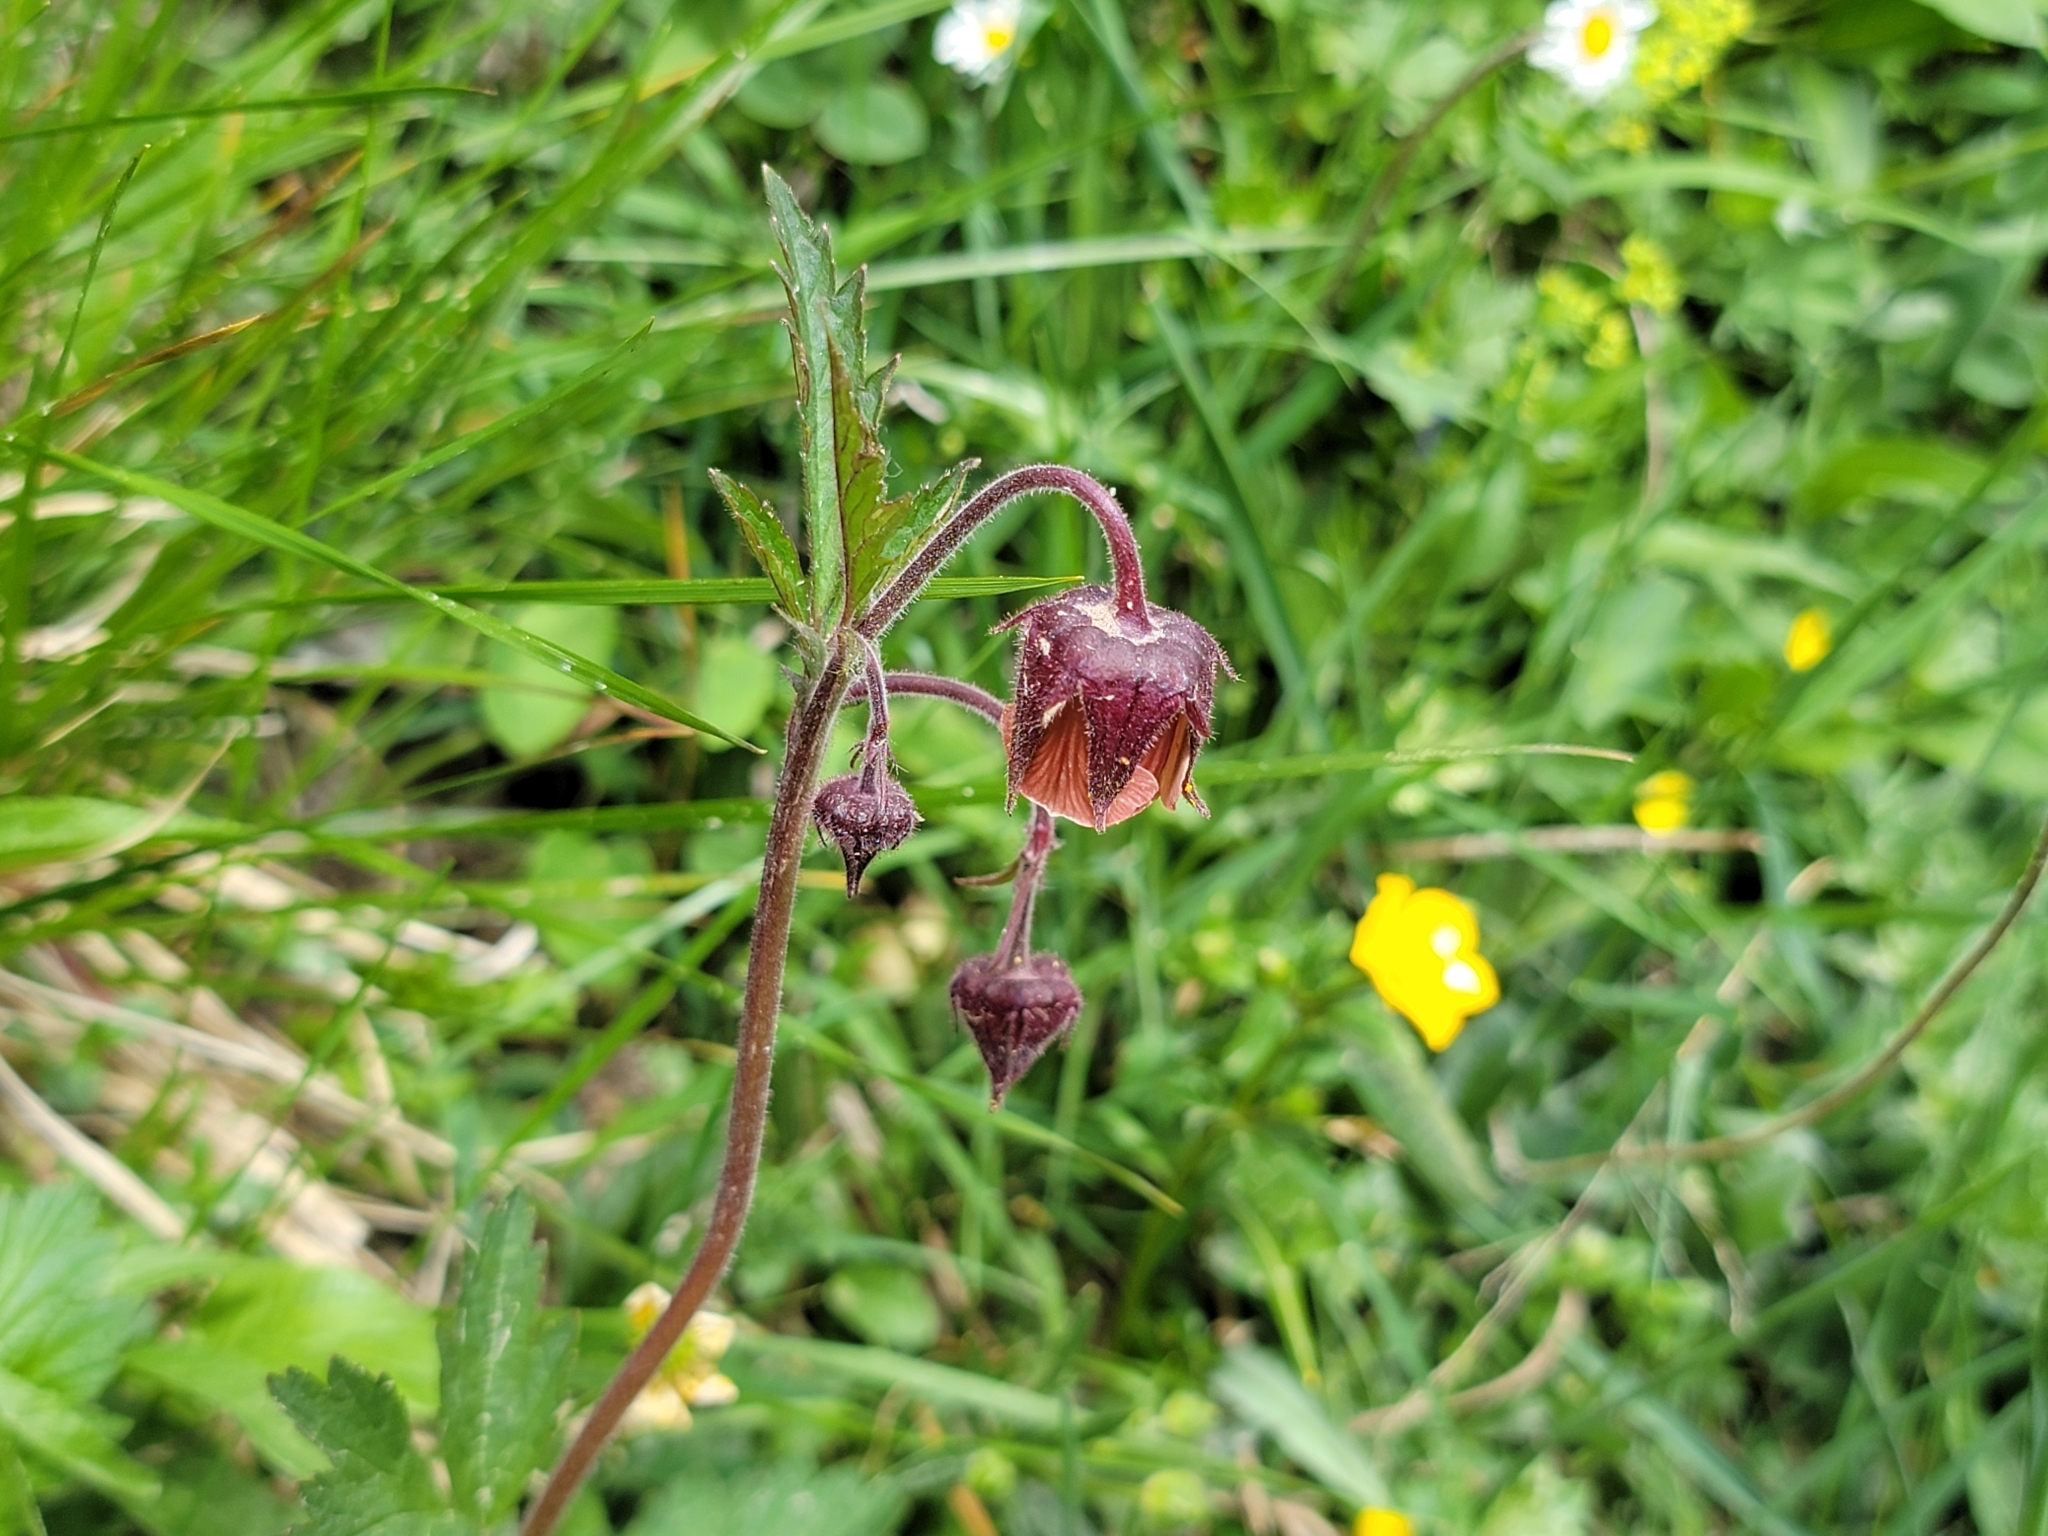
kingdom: Plantae
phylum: Tracheophyta
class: Magnoliopsida
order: Rosales
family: Rosaceae
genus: Geum
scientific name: Geum rivale
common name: Water avens
